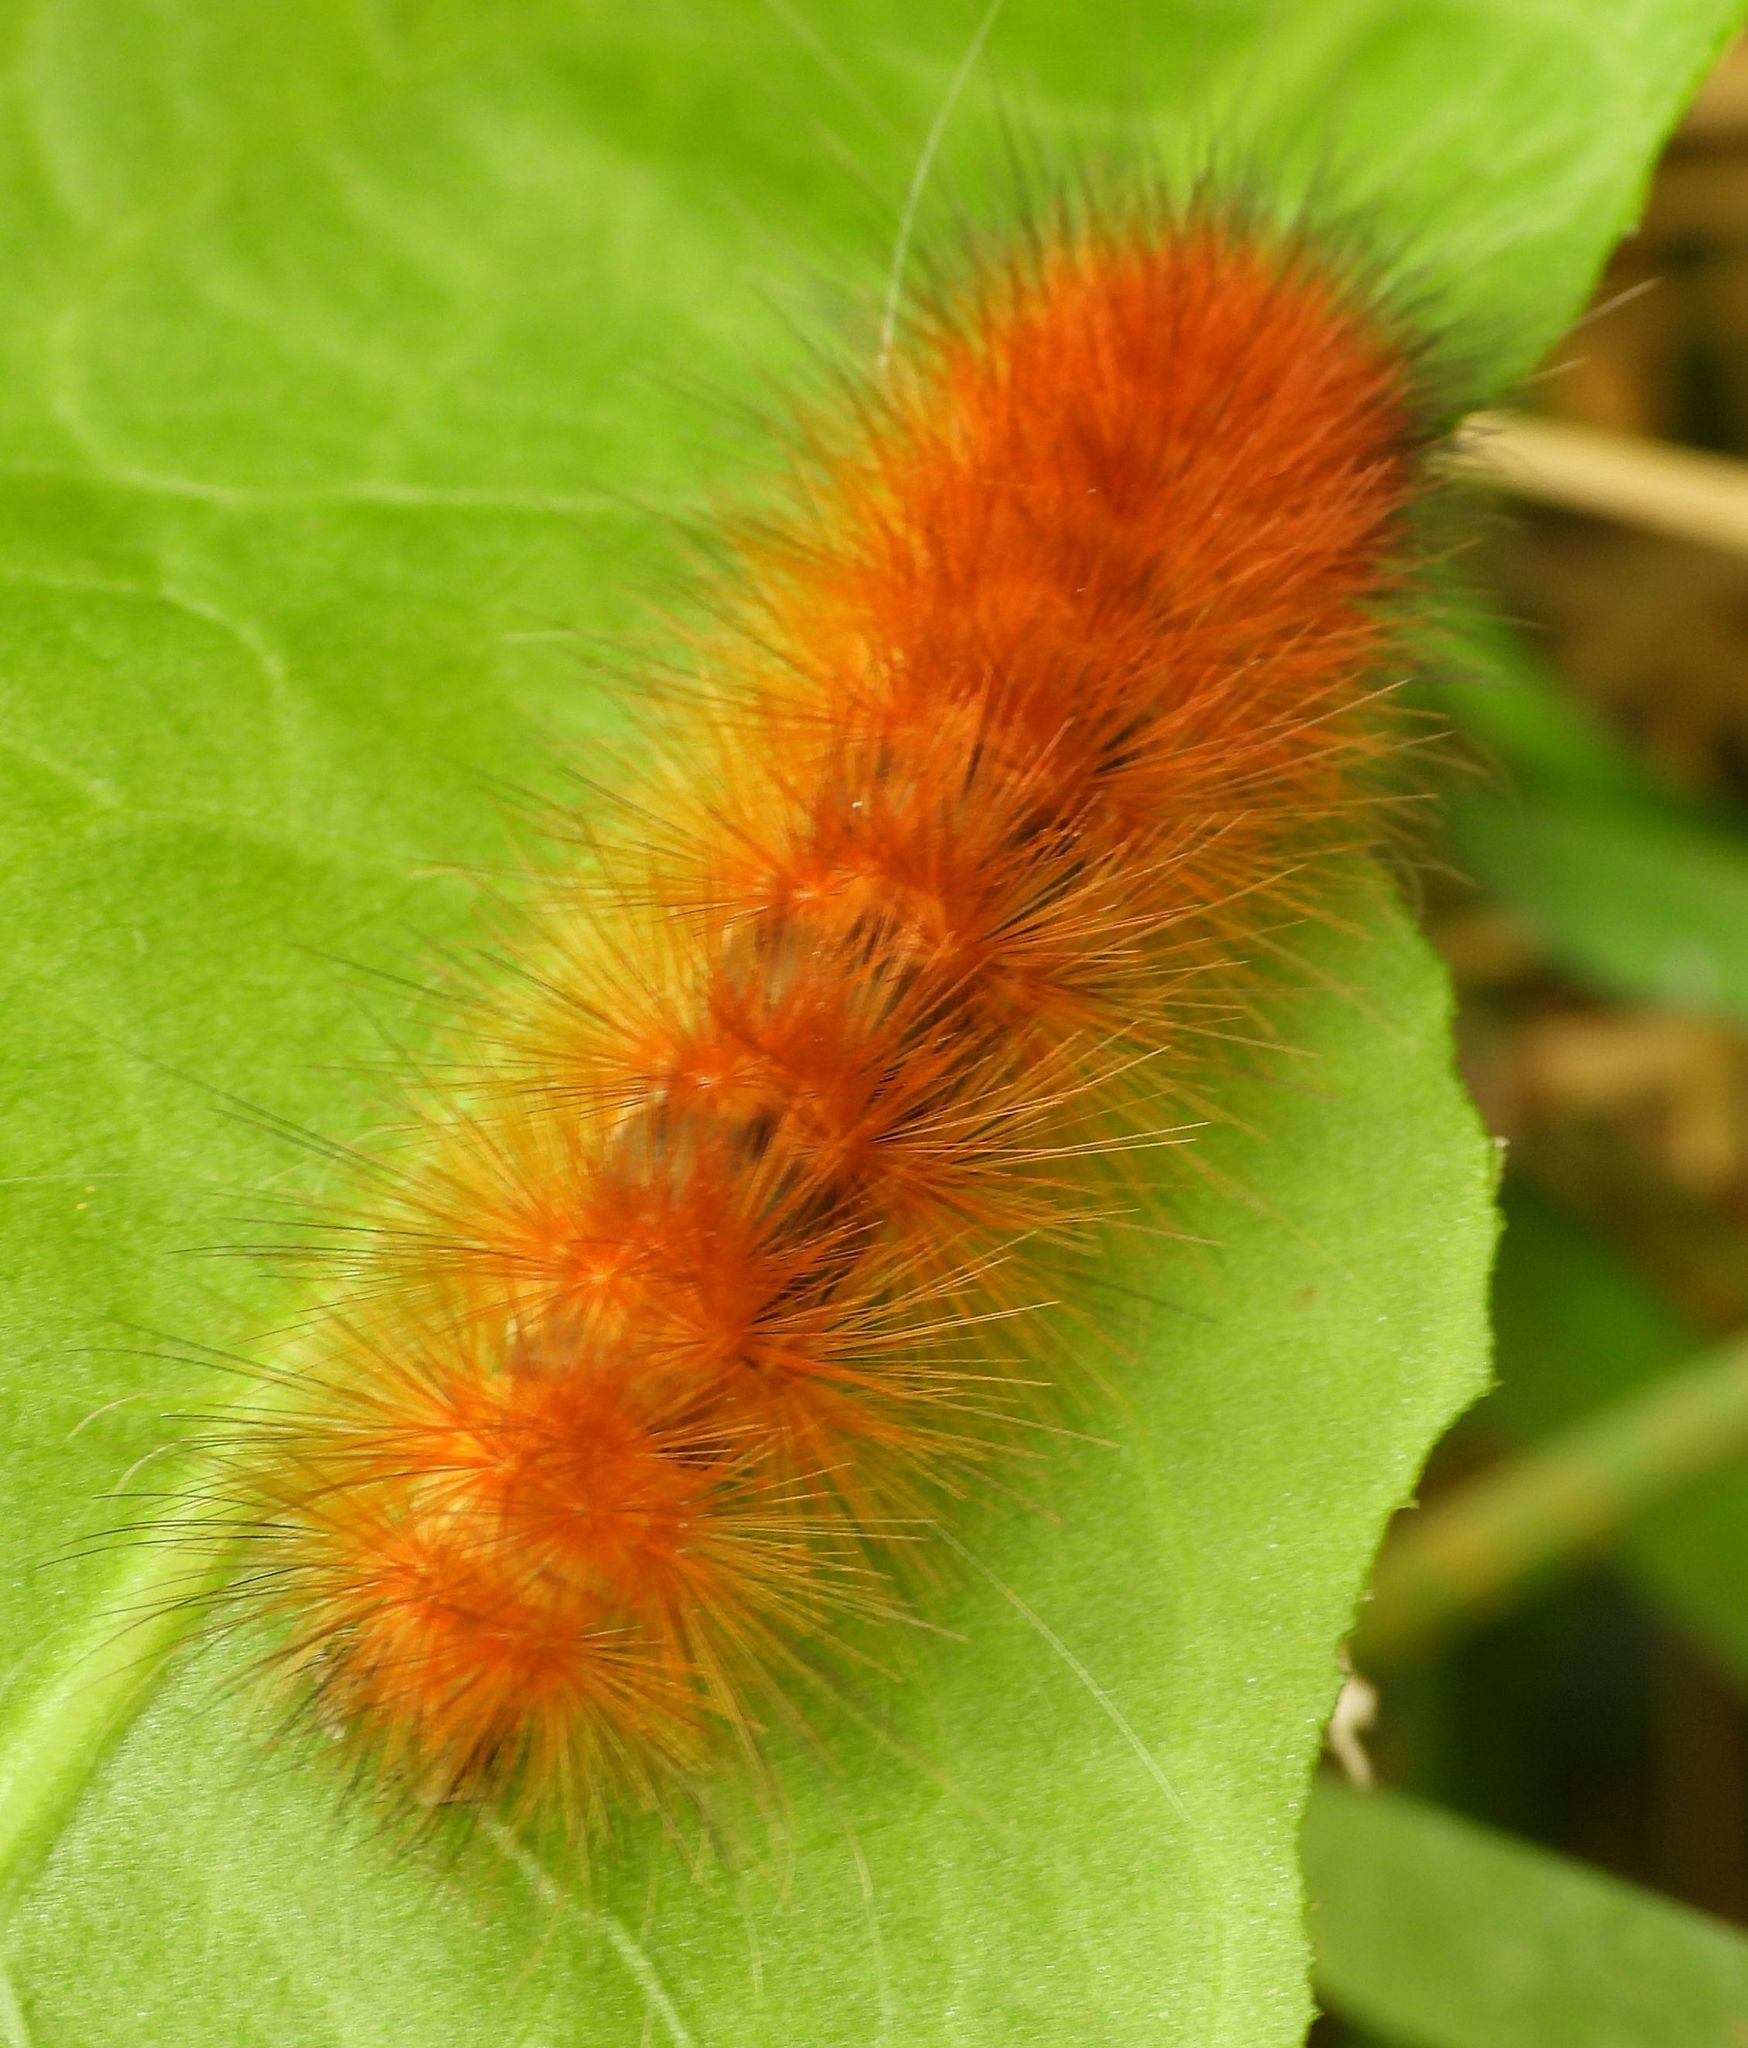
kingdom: Animalia
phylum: Arthropoda
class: Insecta
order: Lepidoptera
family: Erebidae
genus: Spilosoma
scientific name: Spilosoma virginica
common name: Virginia tiger moth
